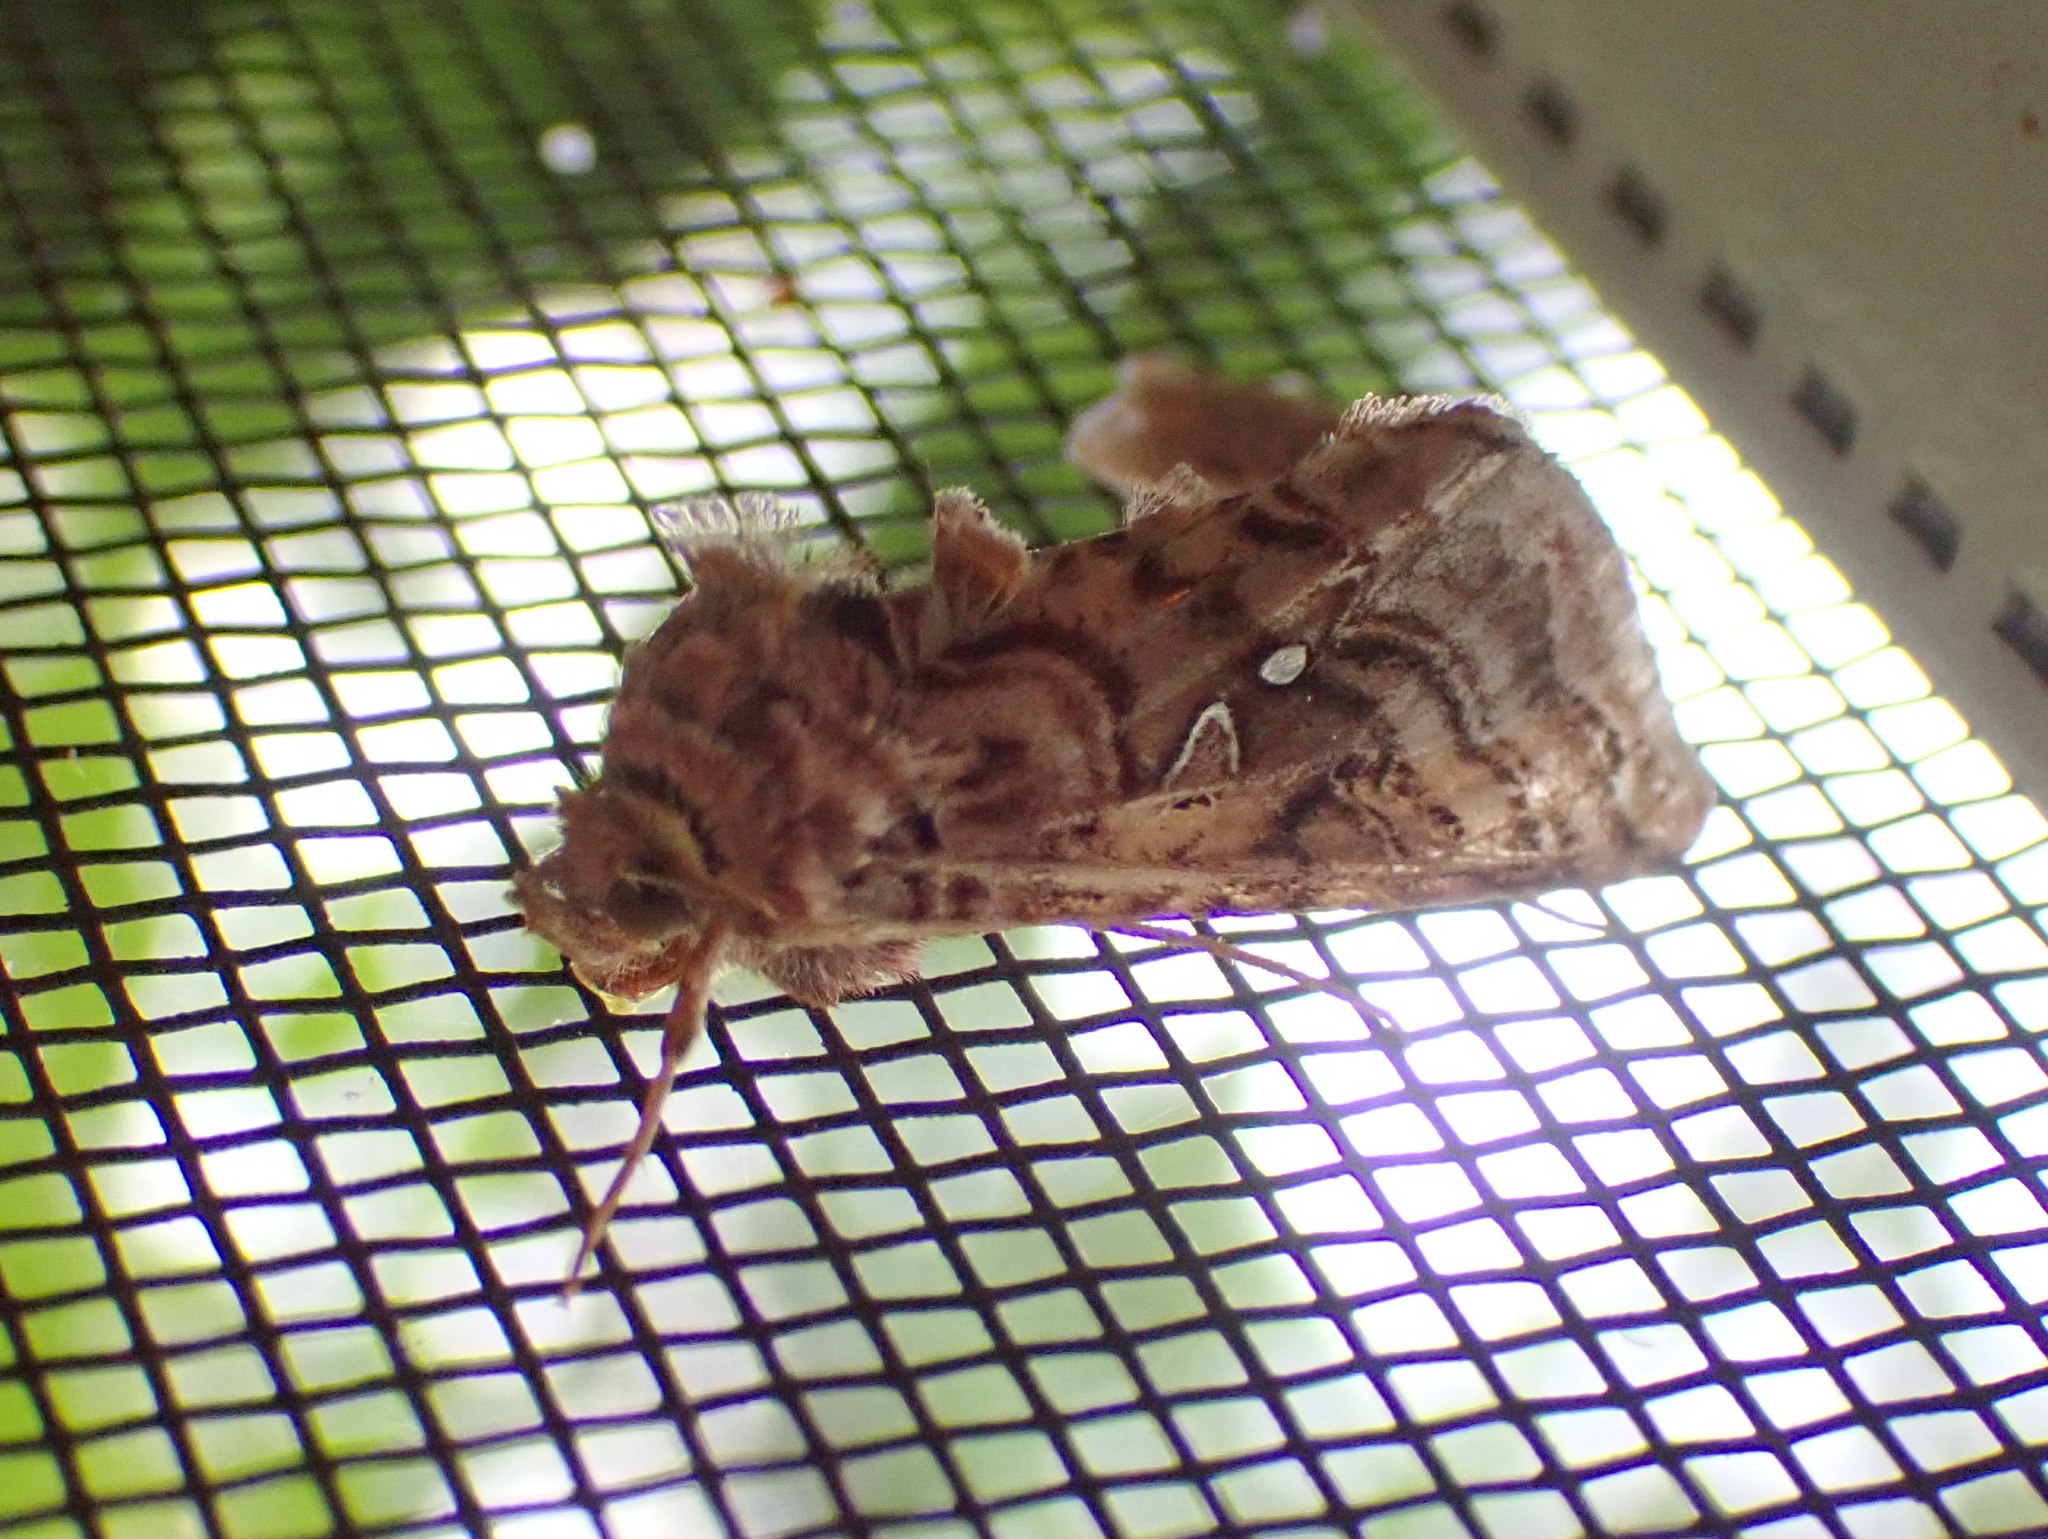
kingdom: Animalia
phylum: Arthropoda
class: Insecta
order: Lepidoptera
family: Noctuidae
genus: Autographa
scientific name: Autographa mappa
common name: Wavy chestnut y moth
